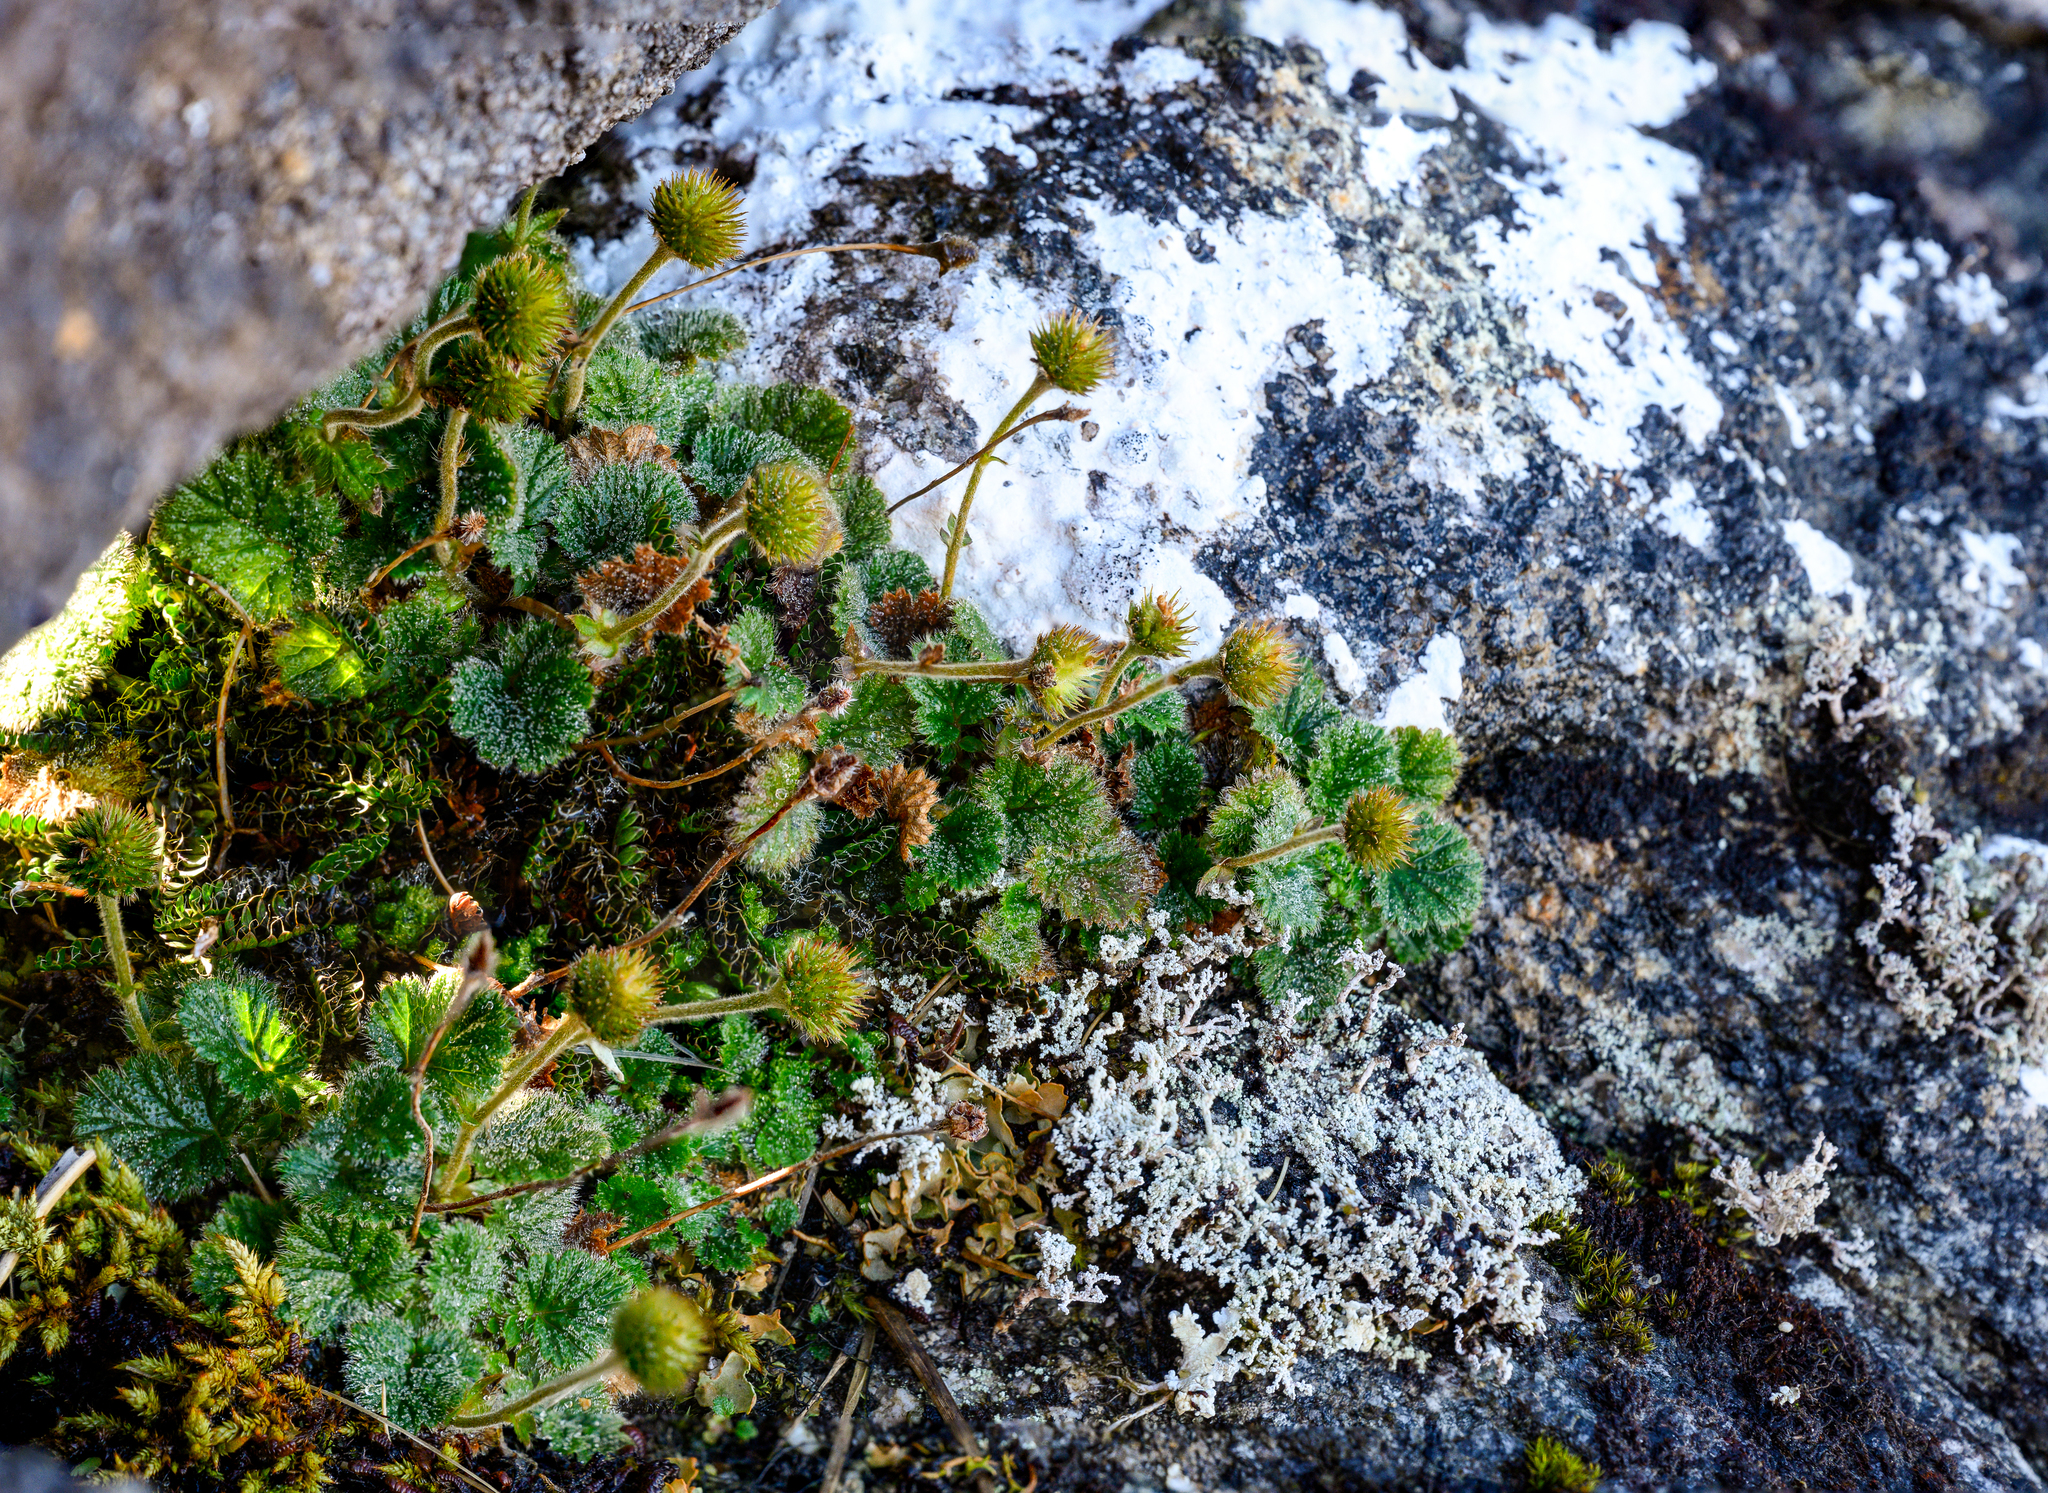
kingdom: Plantae
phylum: Tracheophyta
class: Magnoliopsida
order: Rosales
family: Rosaceae
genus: Geum
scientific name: Geum uniflorum
